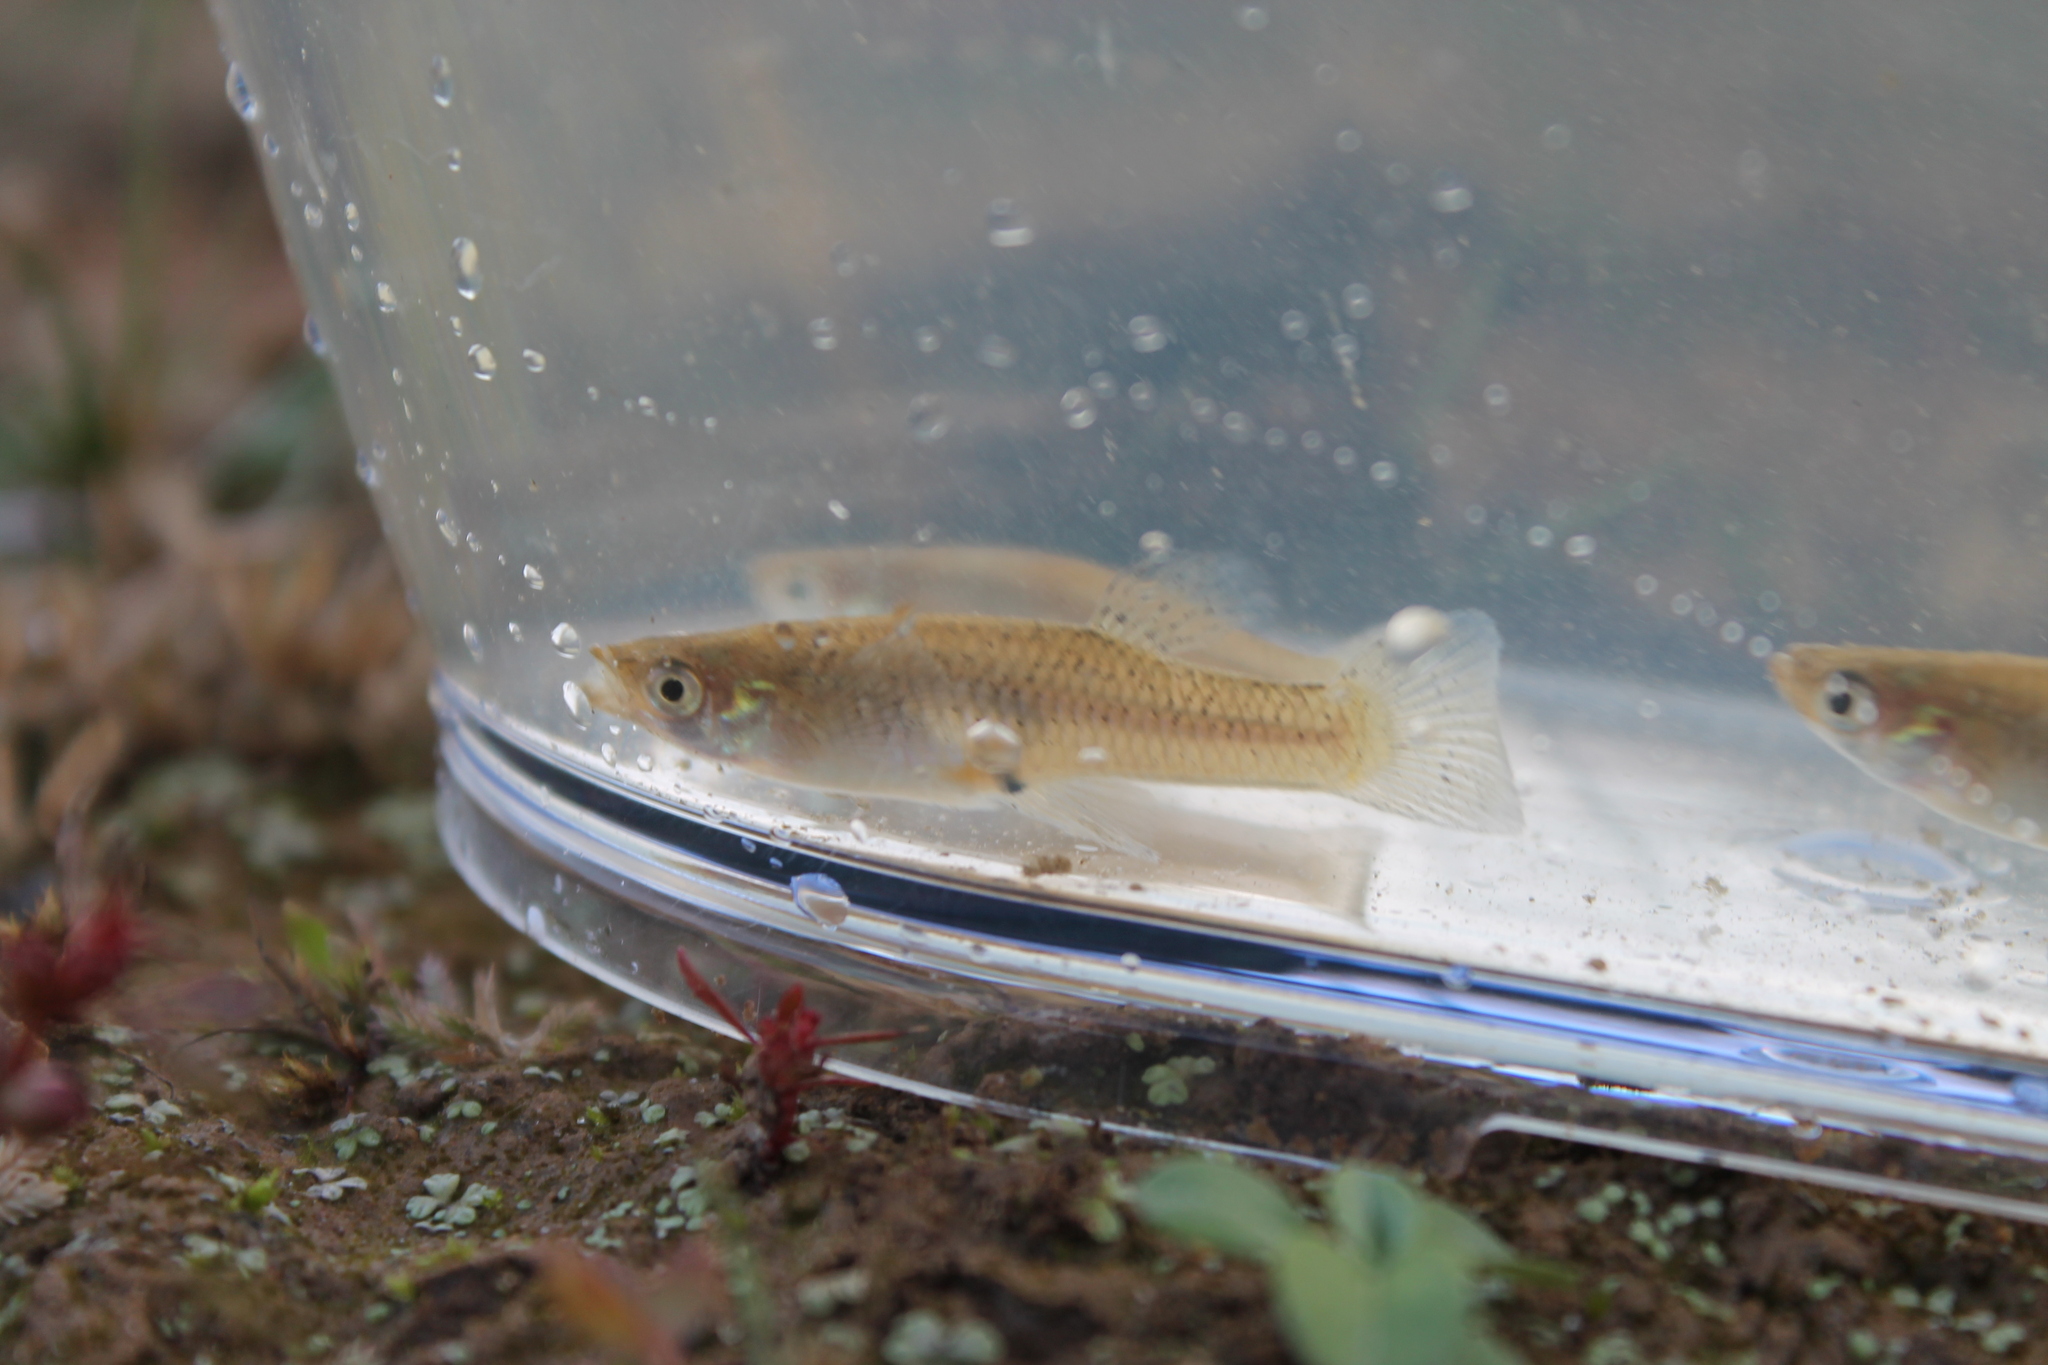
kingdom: Animalia
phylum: Chordata
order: Cyprinodontiformes
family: Poeciliidae
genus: Gambusia
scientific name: Gambusia affinis
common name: Mosquitofish
